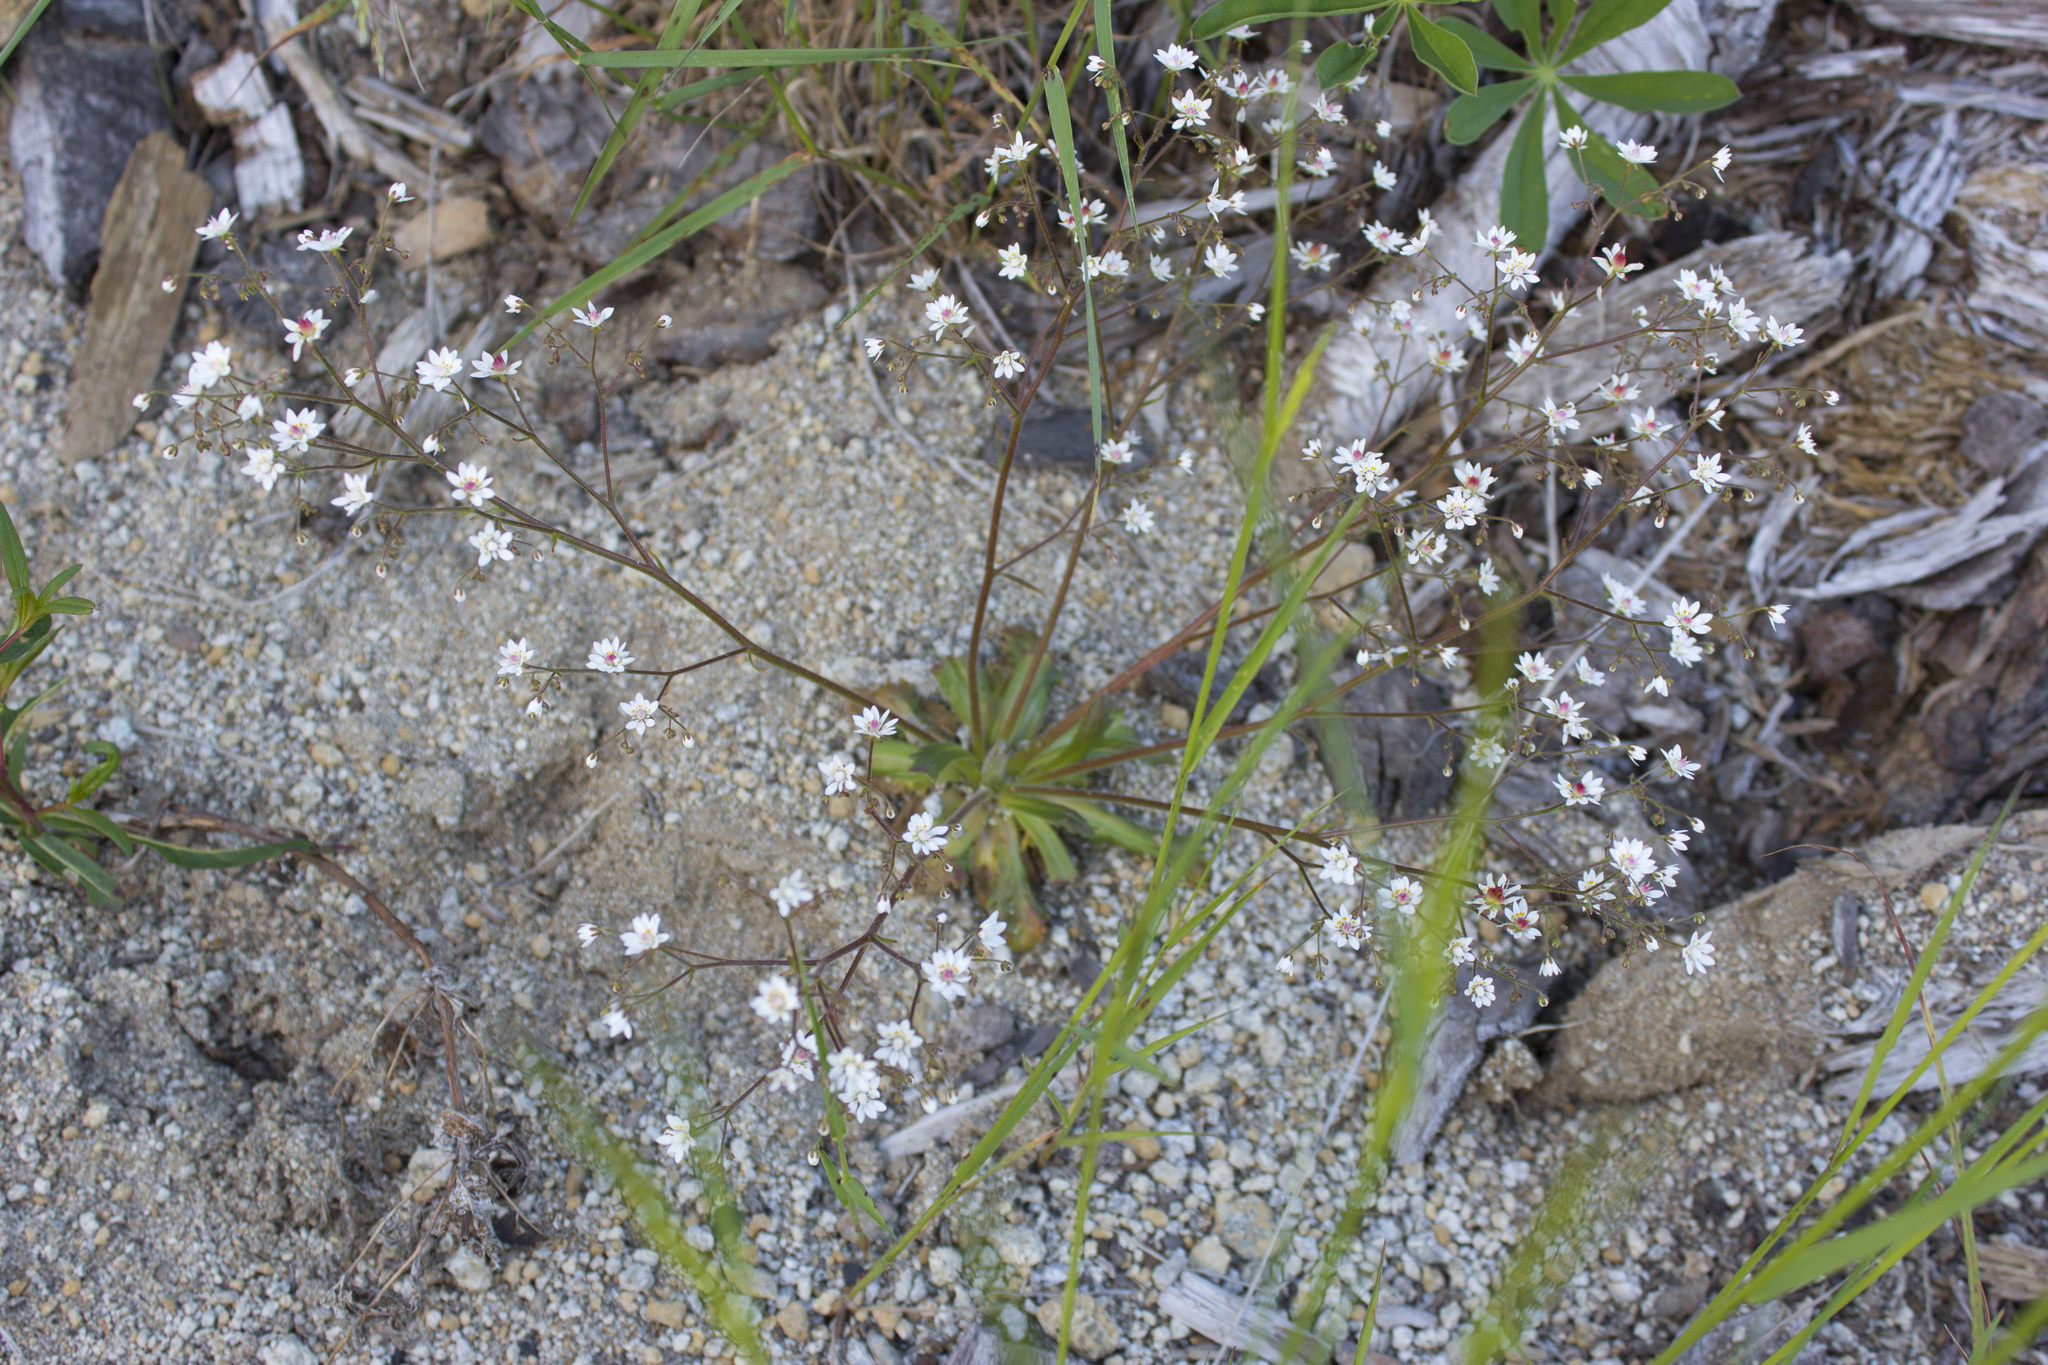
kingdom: Plantae
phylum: Tracheophyta
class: Magnoliopsida
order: Saxifragales
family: Saxifragaceae
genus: Micranthes
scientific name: Micranthes ferruginea
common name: Rusty saxifrage
